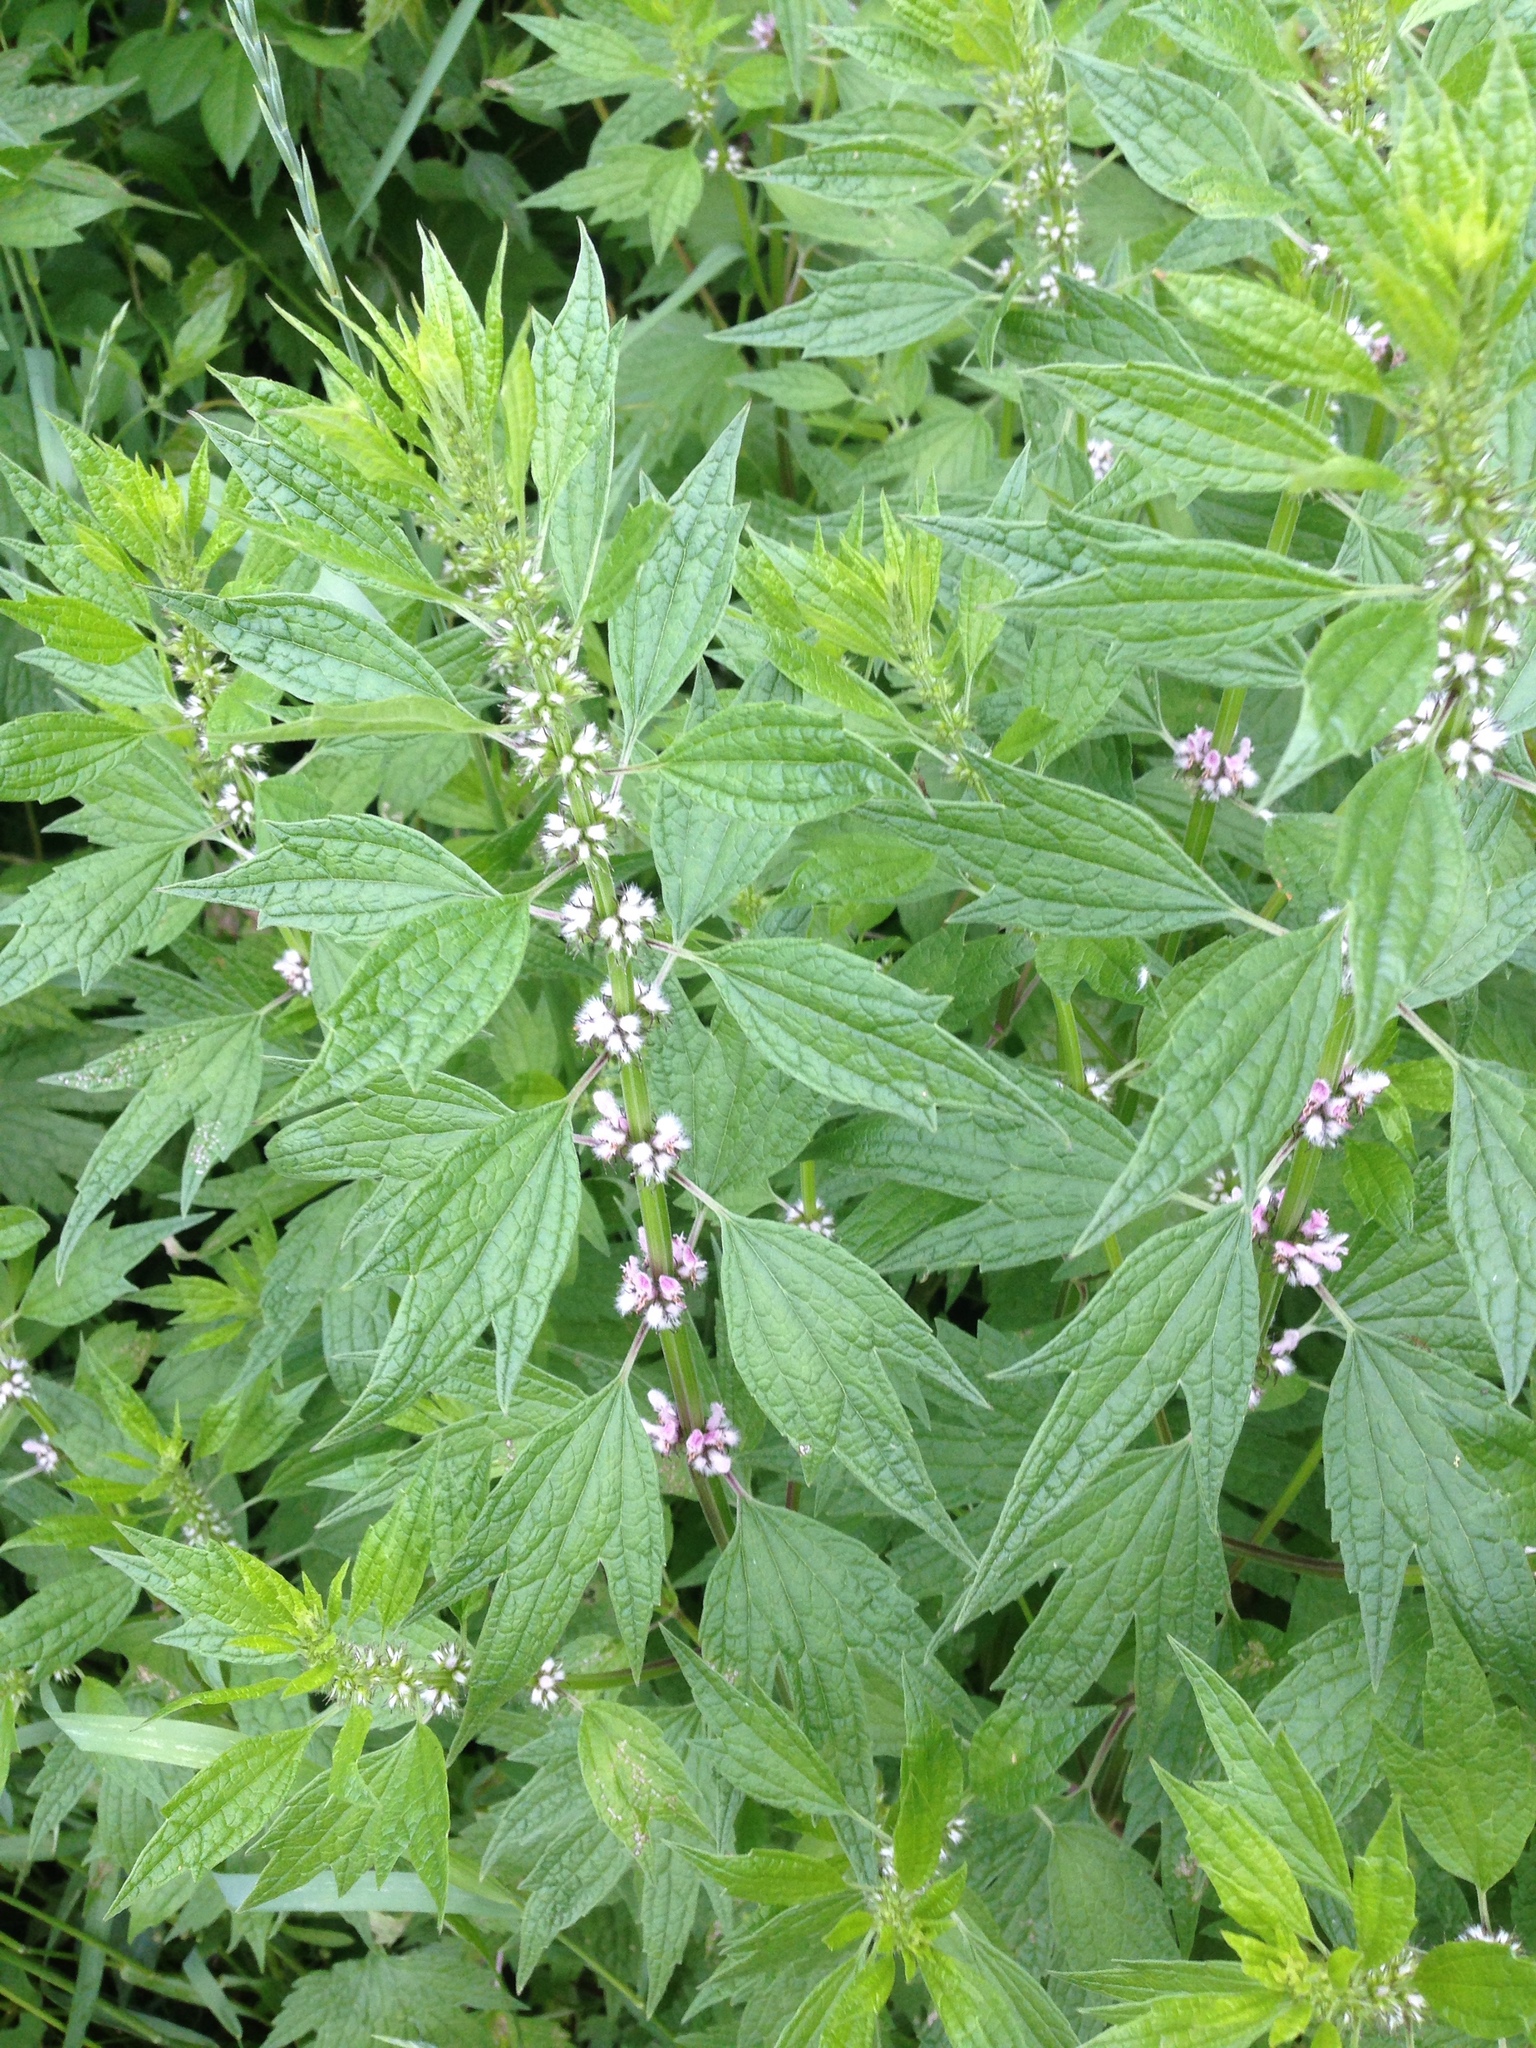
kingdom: Plantae
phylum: Tracheophyta
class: Magnoliopsida
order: Lamiales
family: Lamiaceae
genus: Leonurus
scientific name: Leonurus cardiaca
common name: Motherwort
